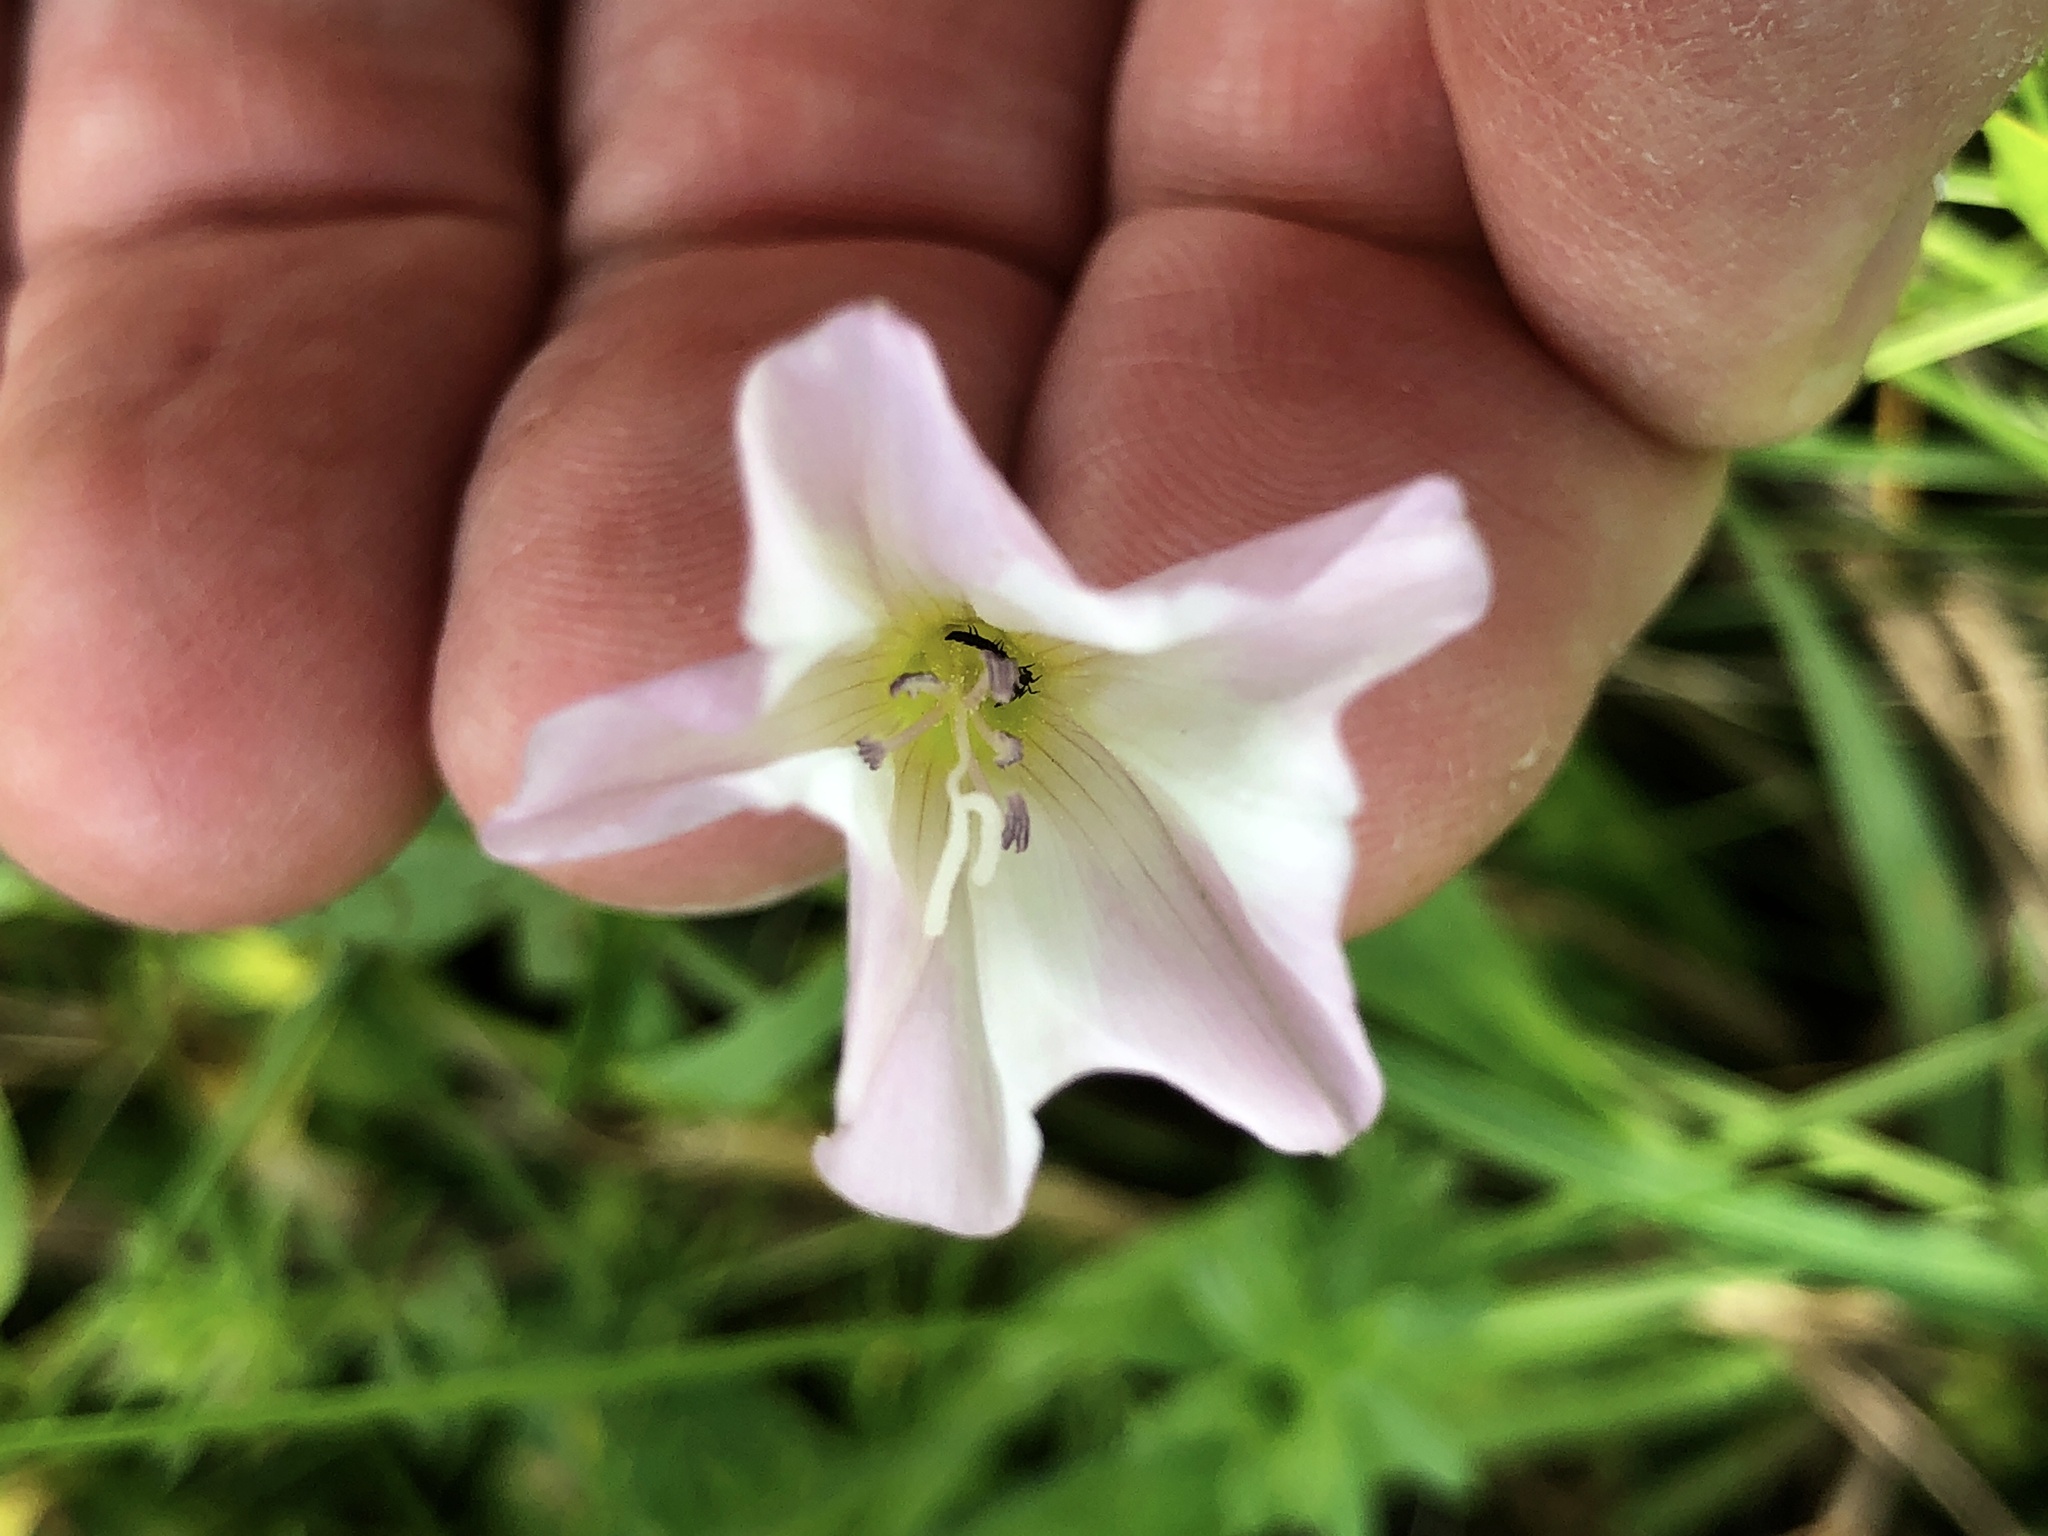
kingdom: Plantae
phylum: Tracheophyta
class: Magnoliopsida
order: Solanales
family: Convolvulaceae
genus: Convolvulus
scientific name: Convolvulus arvensis
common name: Field bindweed
